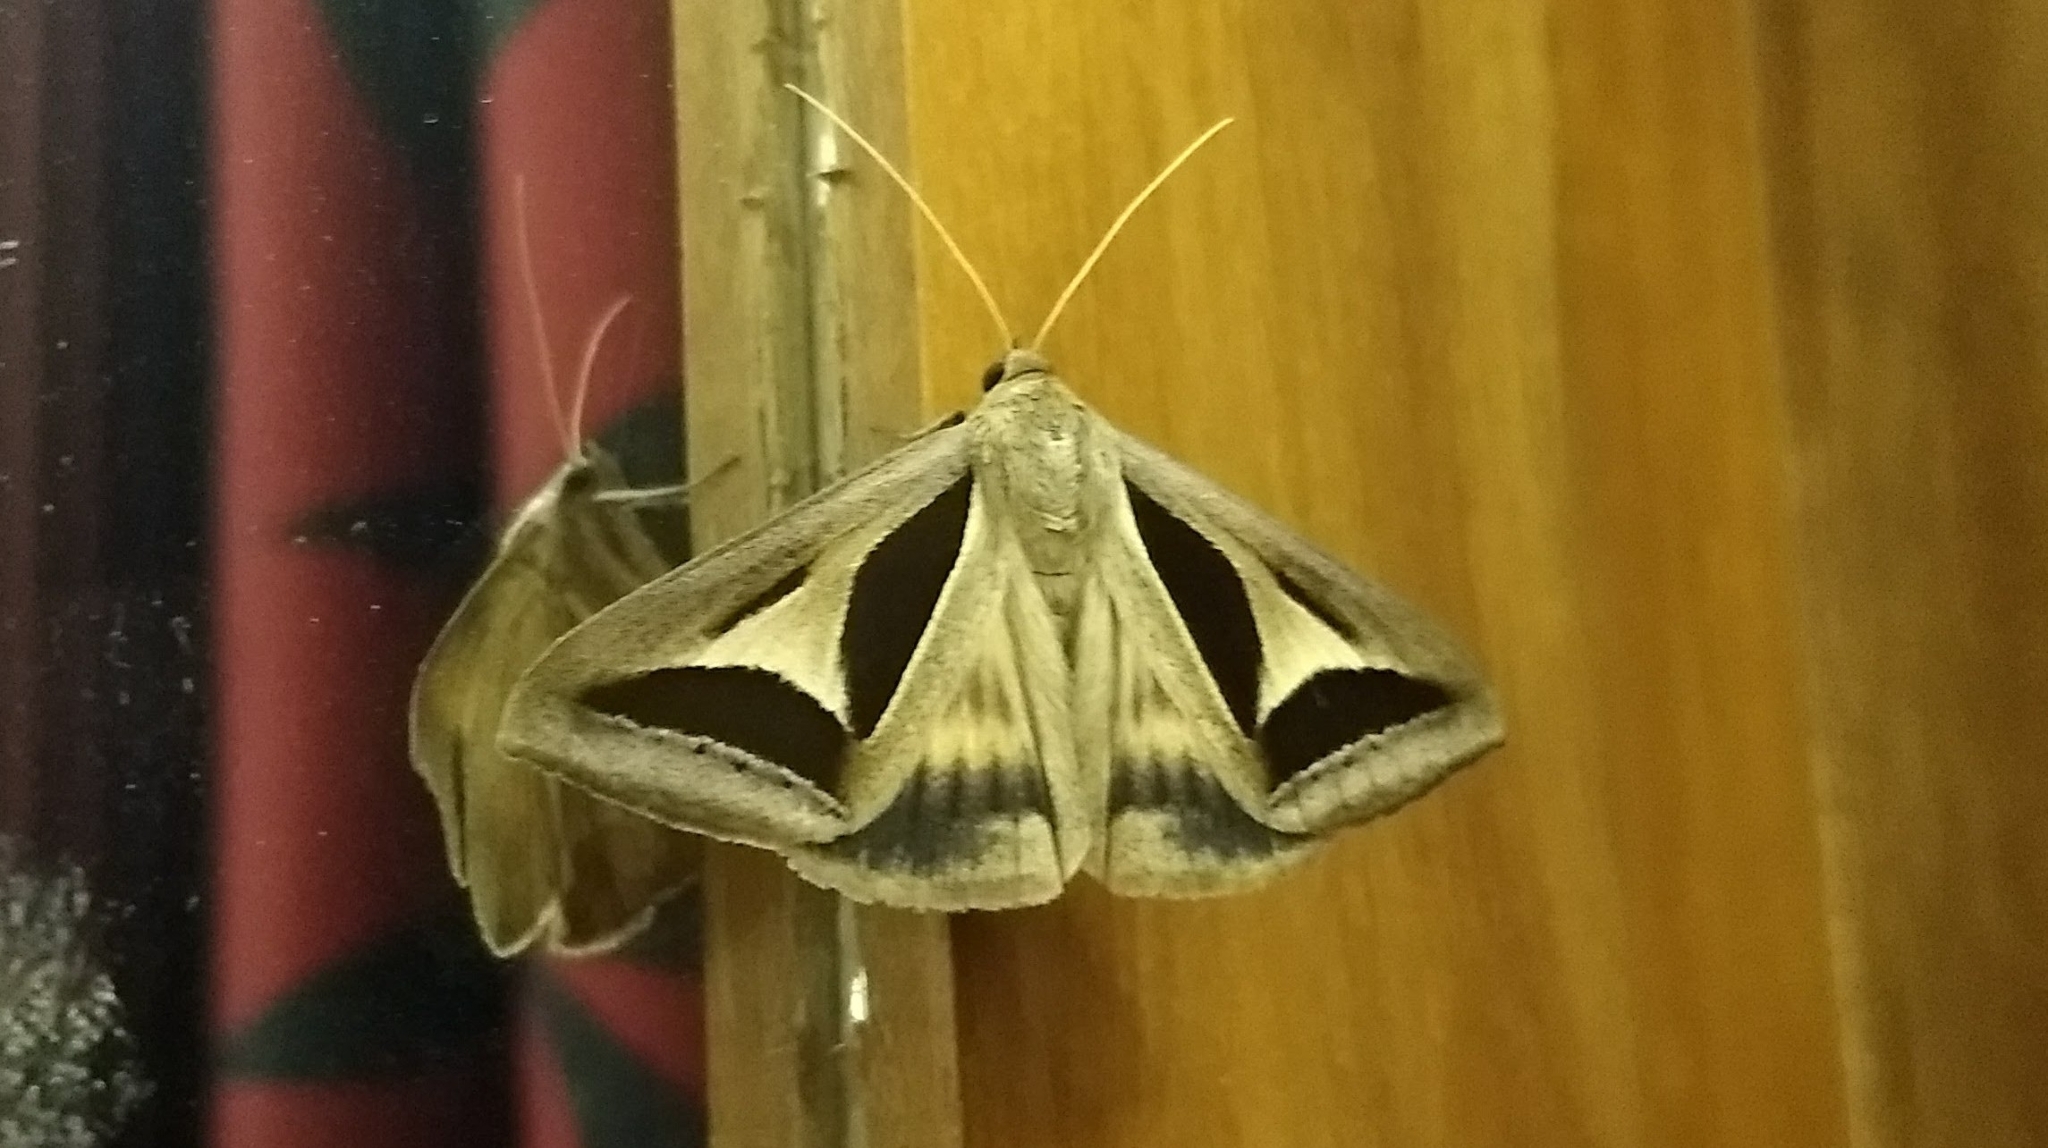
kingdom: Animalia
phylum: Arthropoda
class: Insecta
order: Lepidoptera
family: Erebidae
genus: Trigonodes
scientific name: Trigonodes cephise
